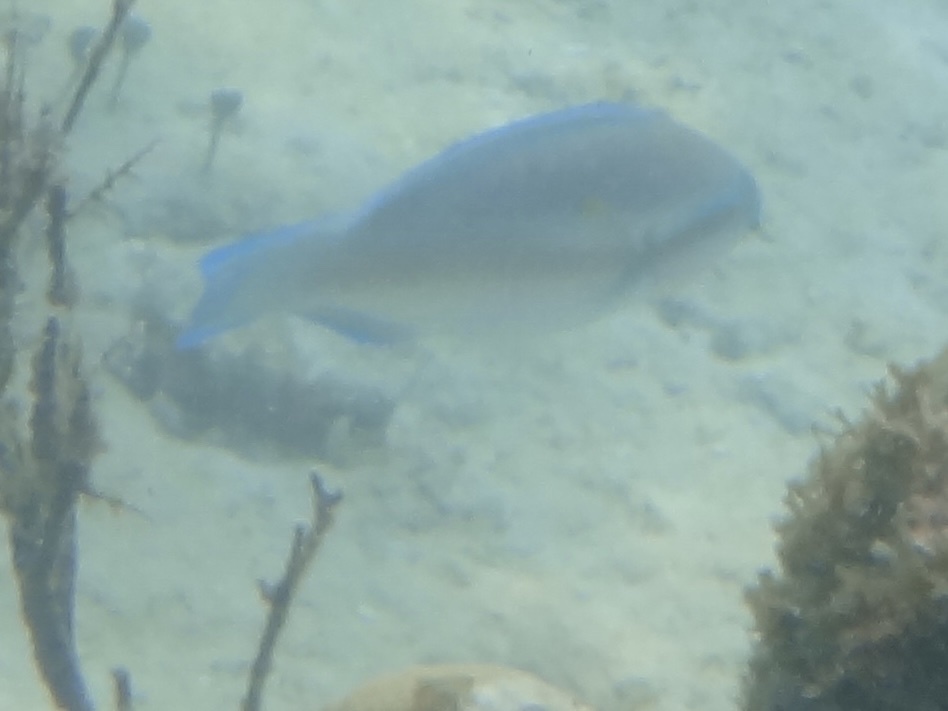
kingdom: Animalia
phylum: Chordata
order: Perciformes
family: Scaridae
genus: Scarus
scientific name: Scarus iseri
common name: Striped parrotfish
